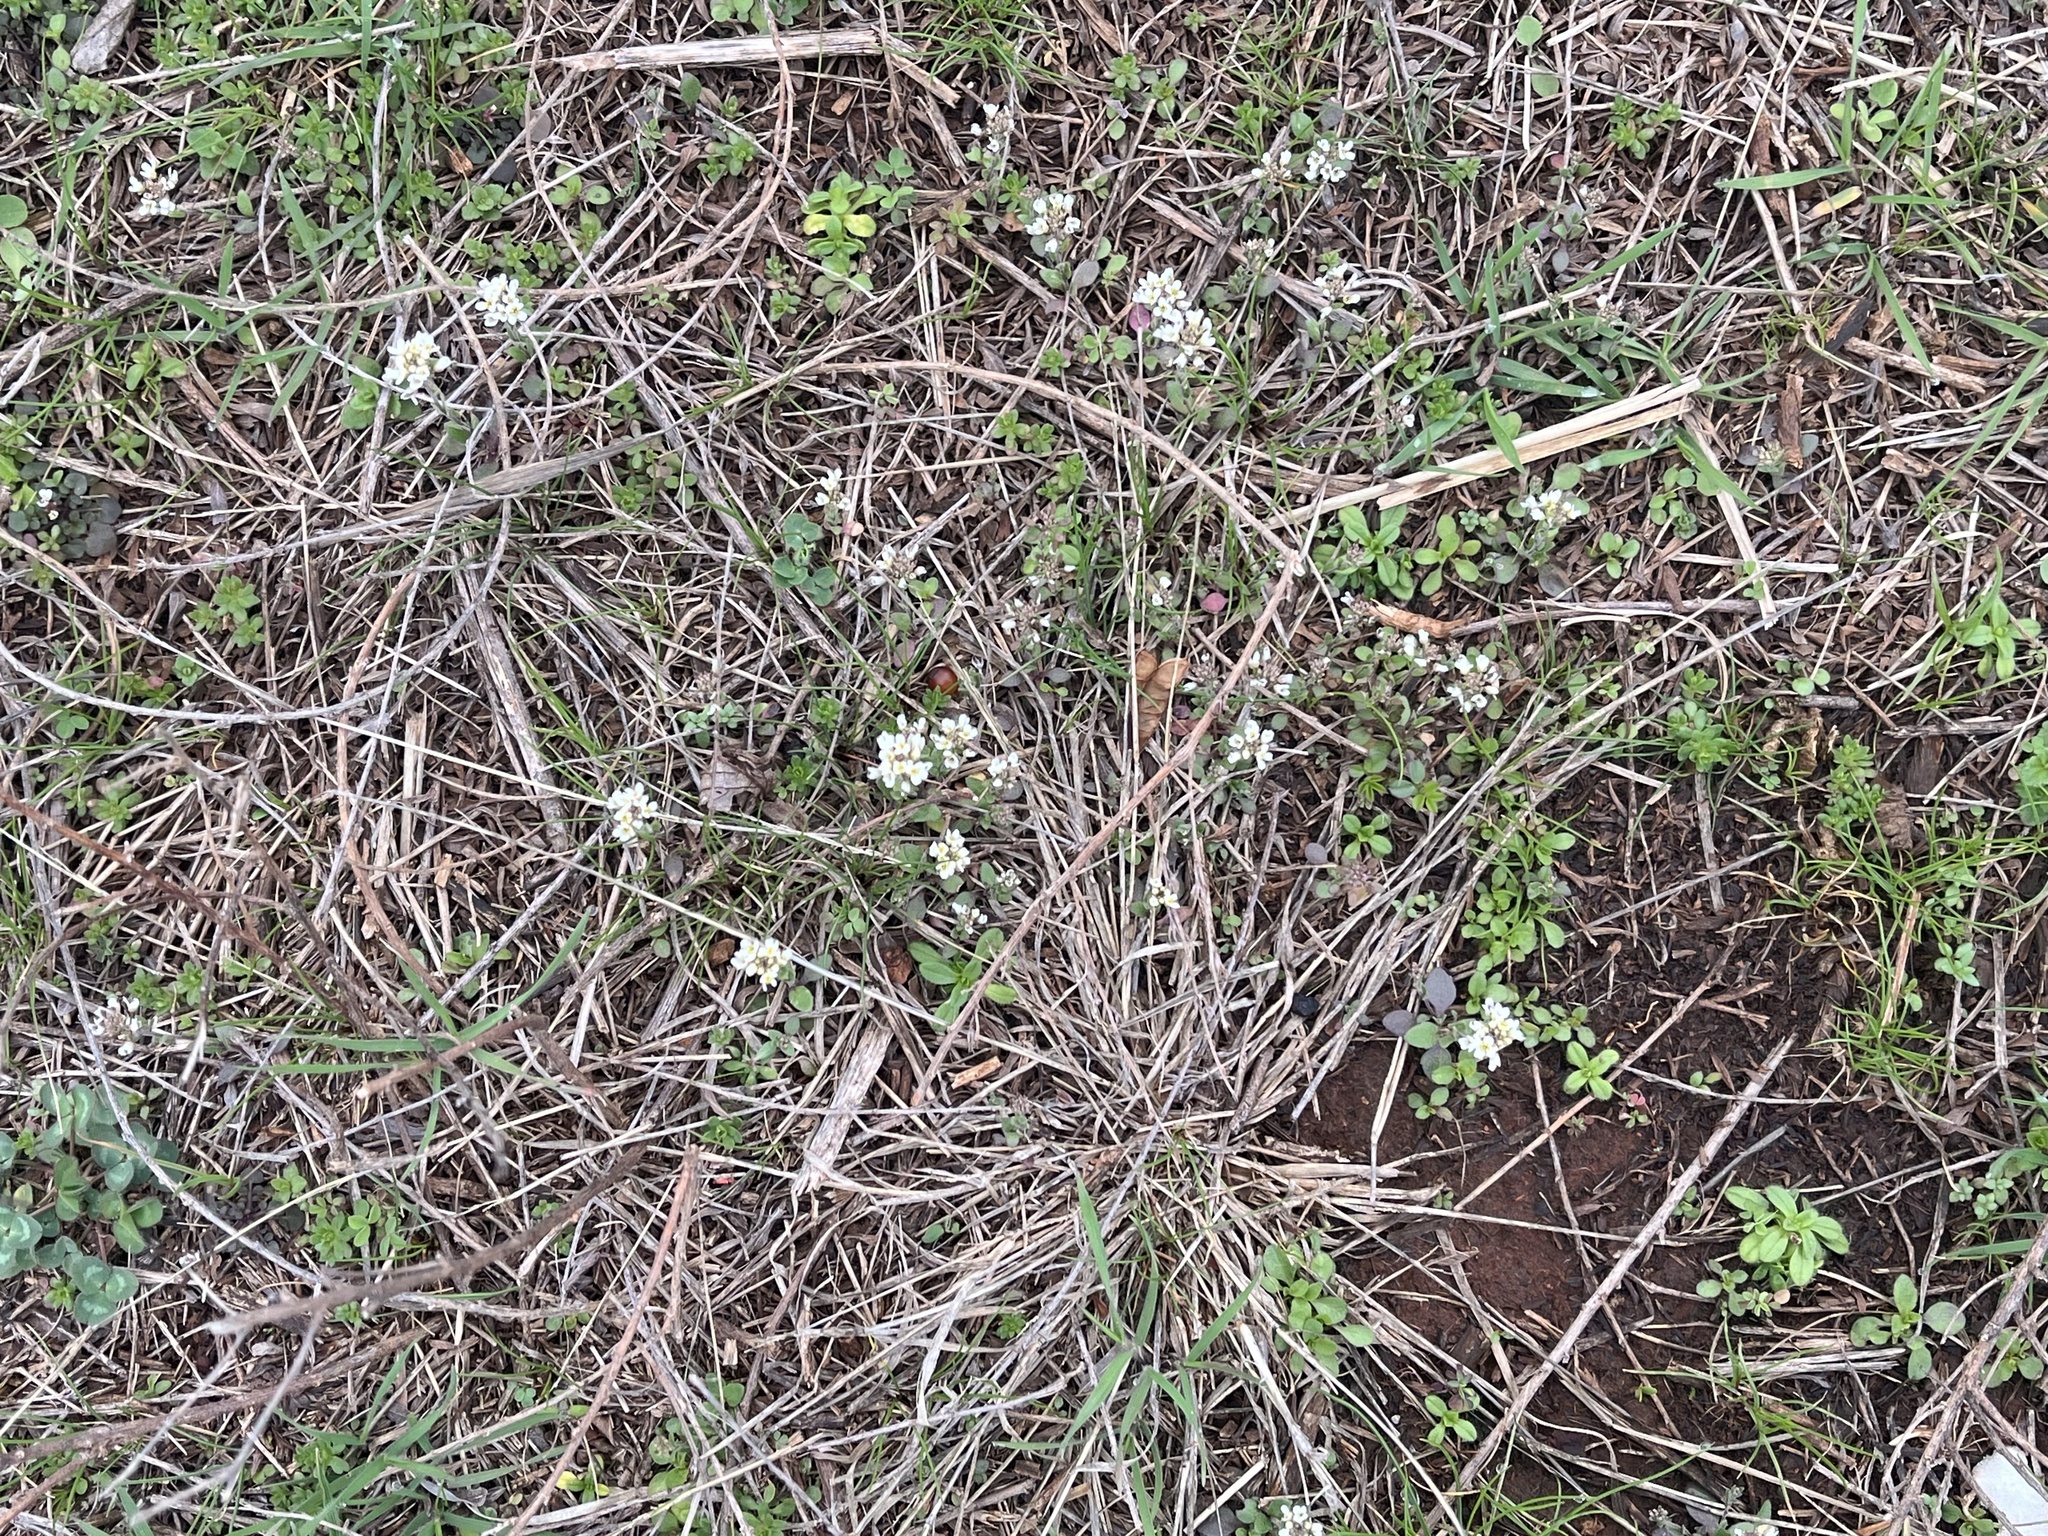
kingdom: Plantae
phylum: Tracheophyta
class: Magnoliopsida
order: Brassicales
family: Brassicaceae
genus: Abdra
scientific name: Abdra brachycarpa
